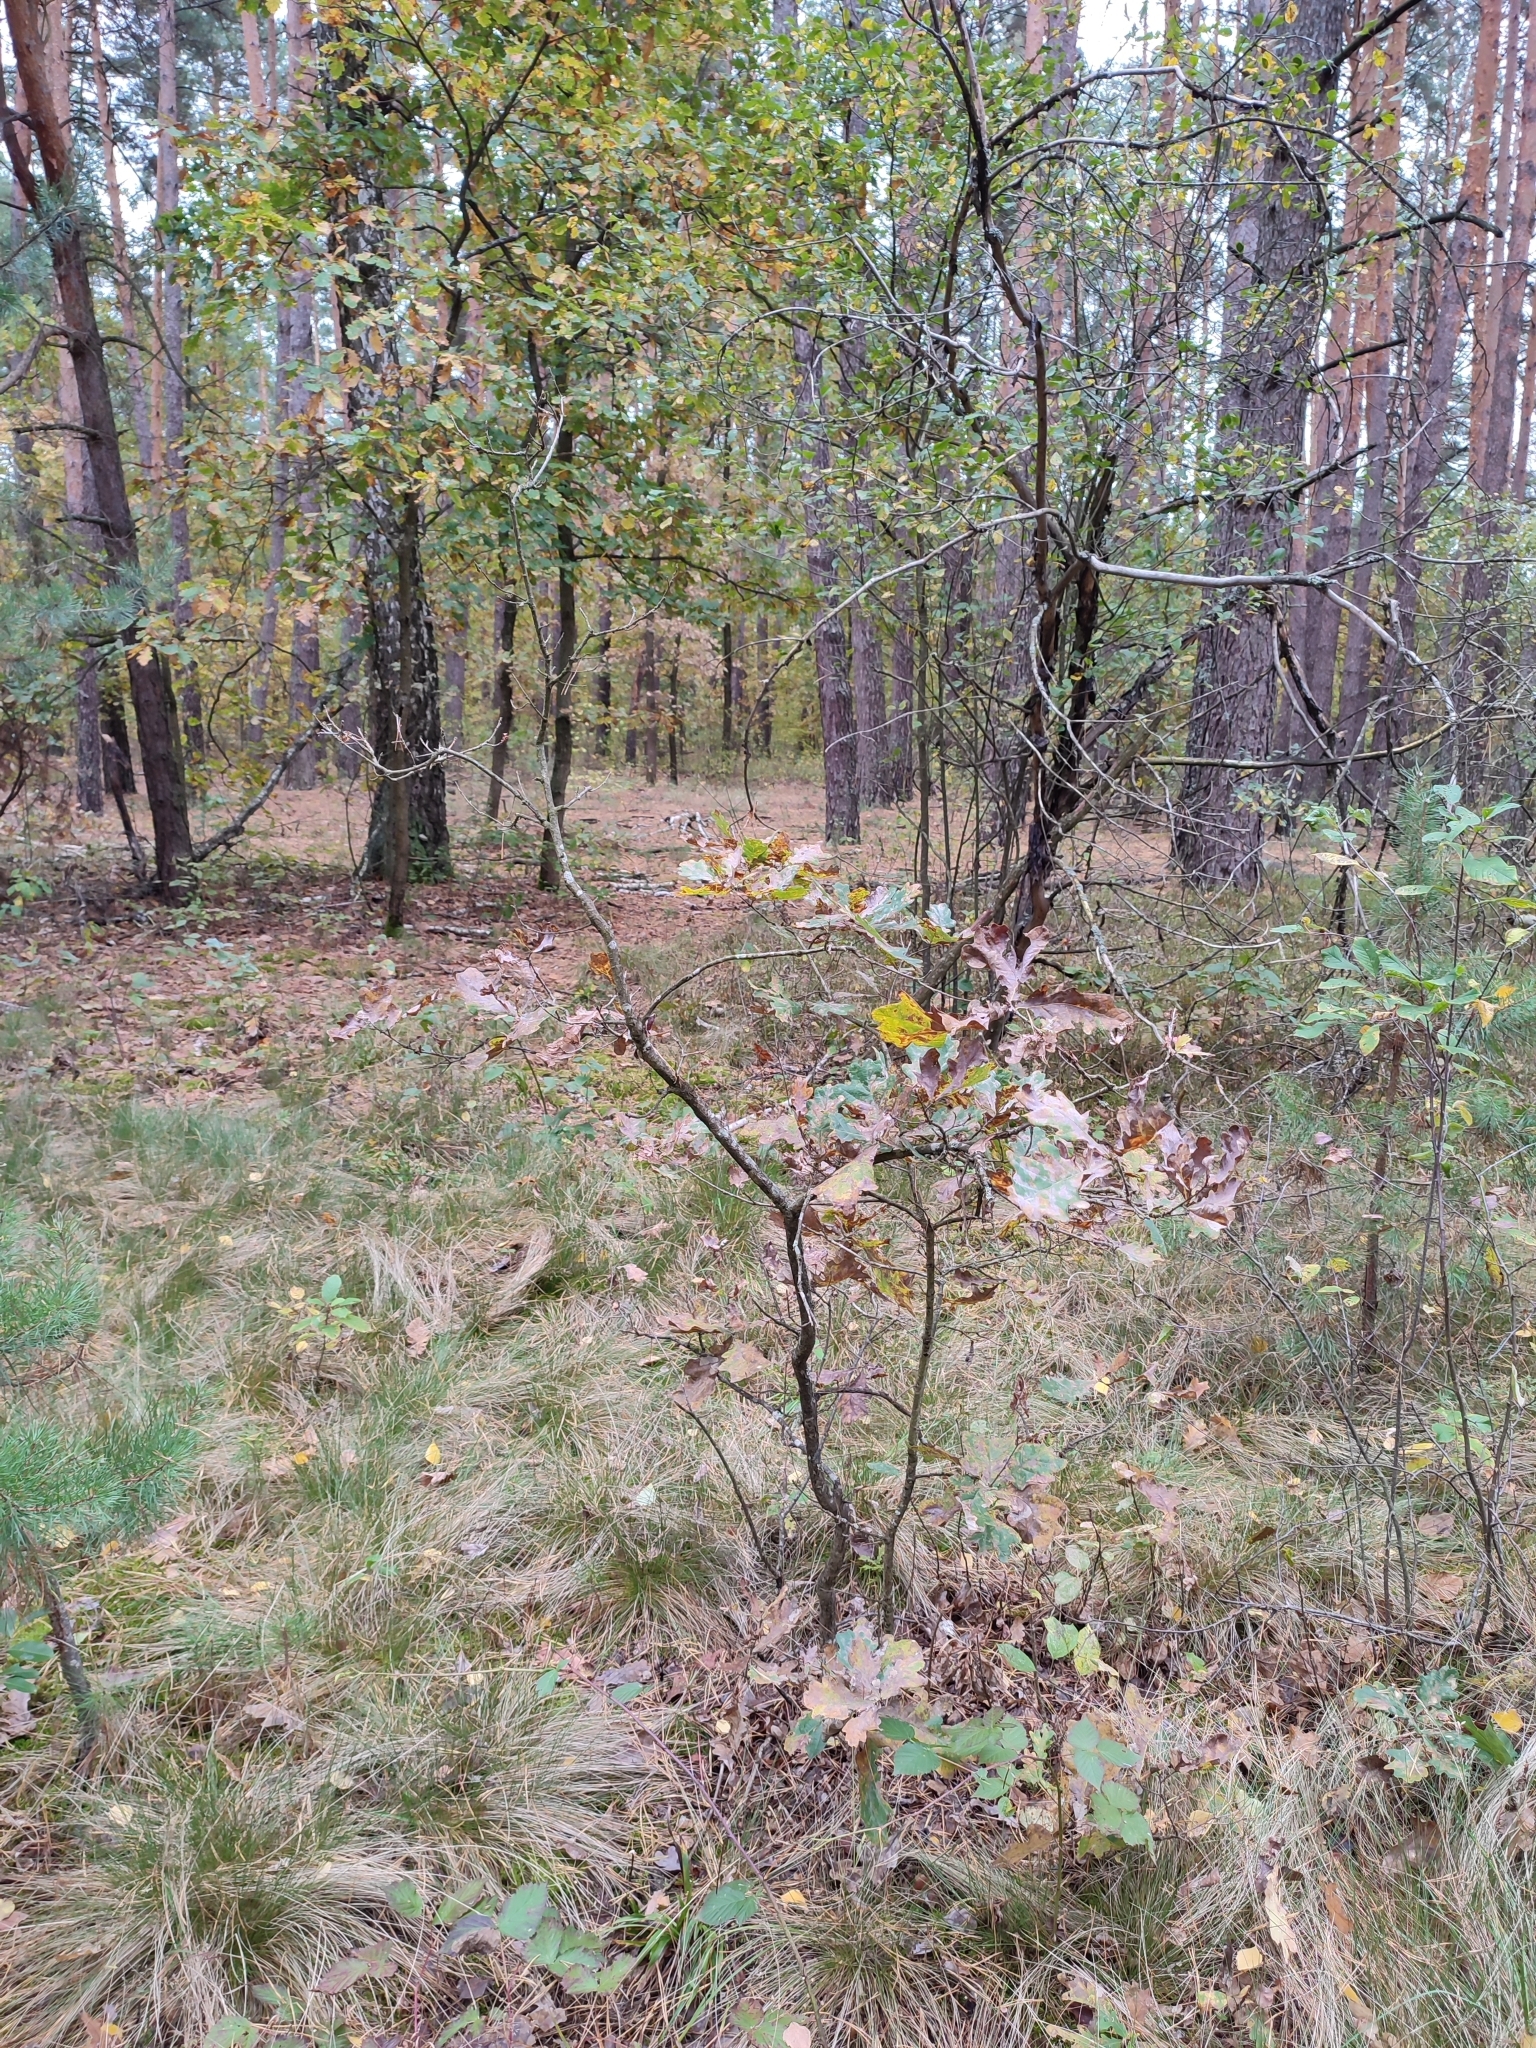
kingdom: Plantae
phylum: Tracheophyta
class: Magnoliopsida
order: Fagales
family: Fagaceae
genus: Quercus
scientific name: Quercus robur
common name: Pedunculate oak
